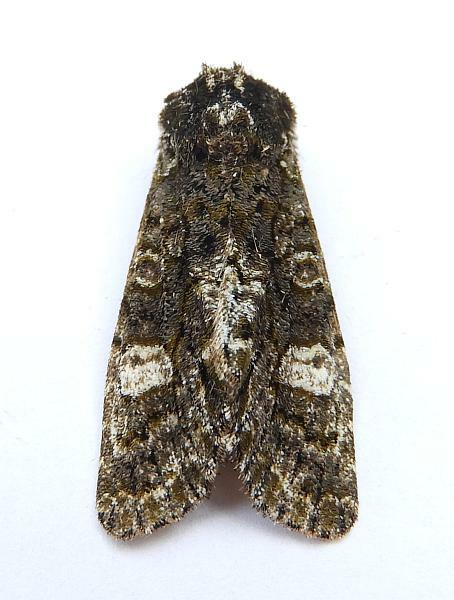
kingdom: Animalia
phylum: Arthropoda
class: Insecta
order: Lepidoptera
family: Noctuidae
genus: Psaphida
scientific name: Psaphida grotei
